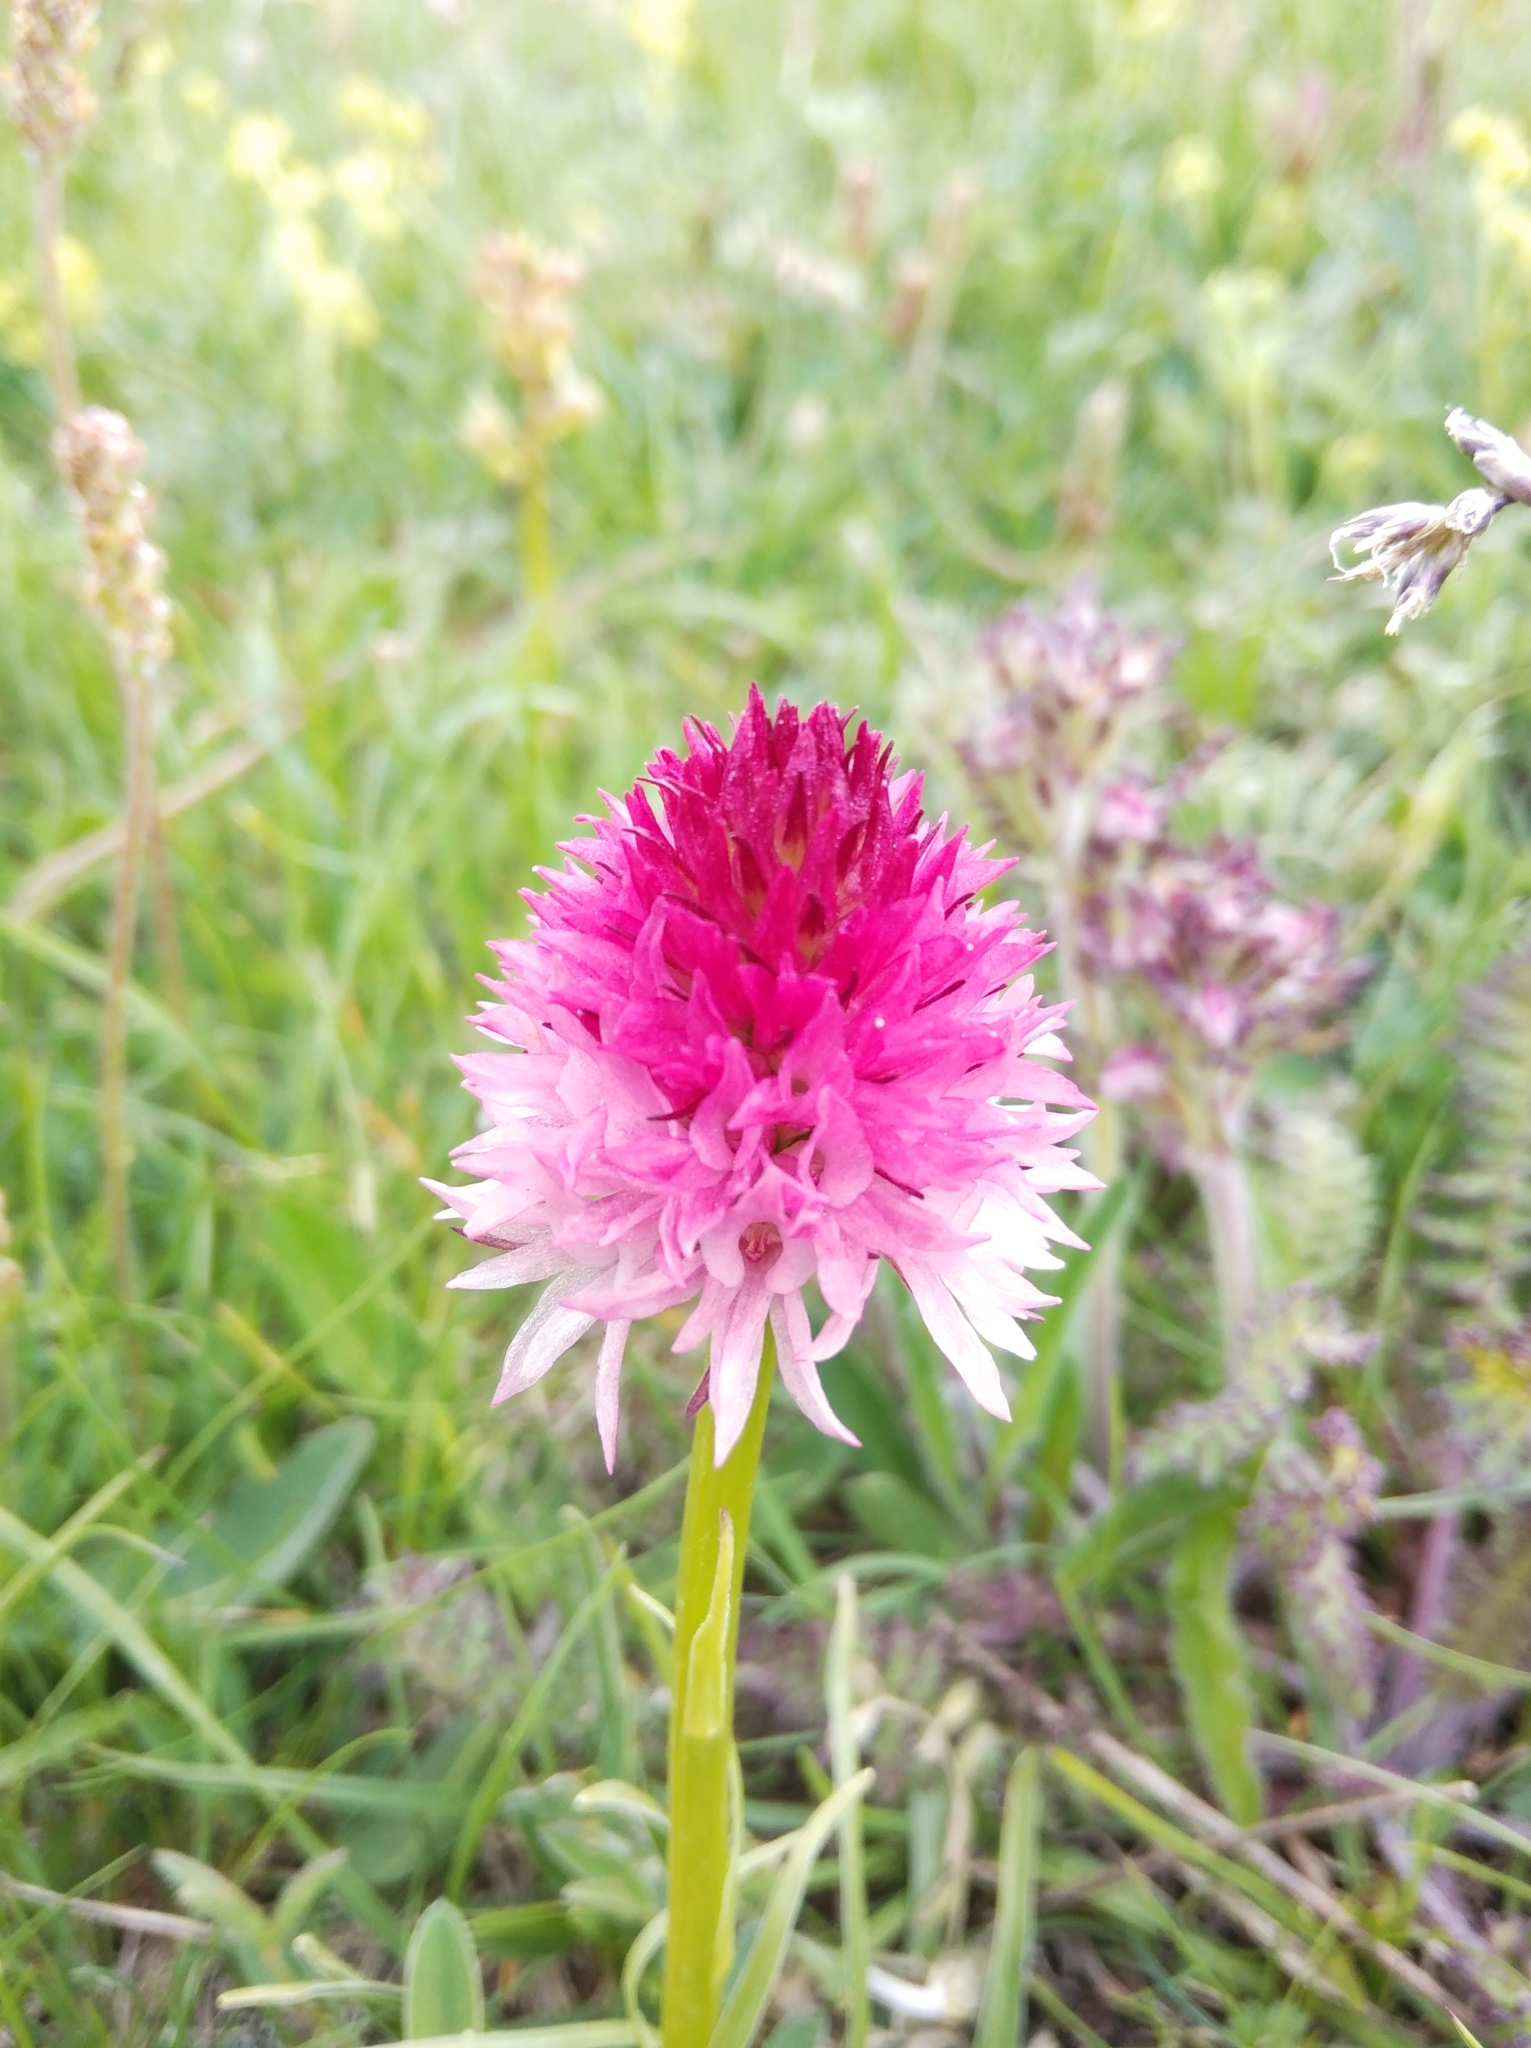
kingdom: Plantae
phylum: Tracheophyta
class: Liliopsida
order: Asparagales
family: Orchidaceae
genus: Gymnadenia
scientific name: Gymnadenia corneliana
